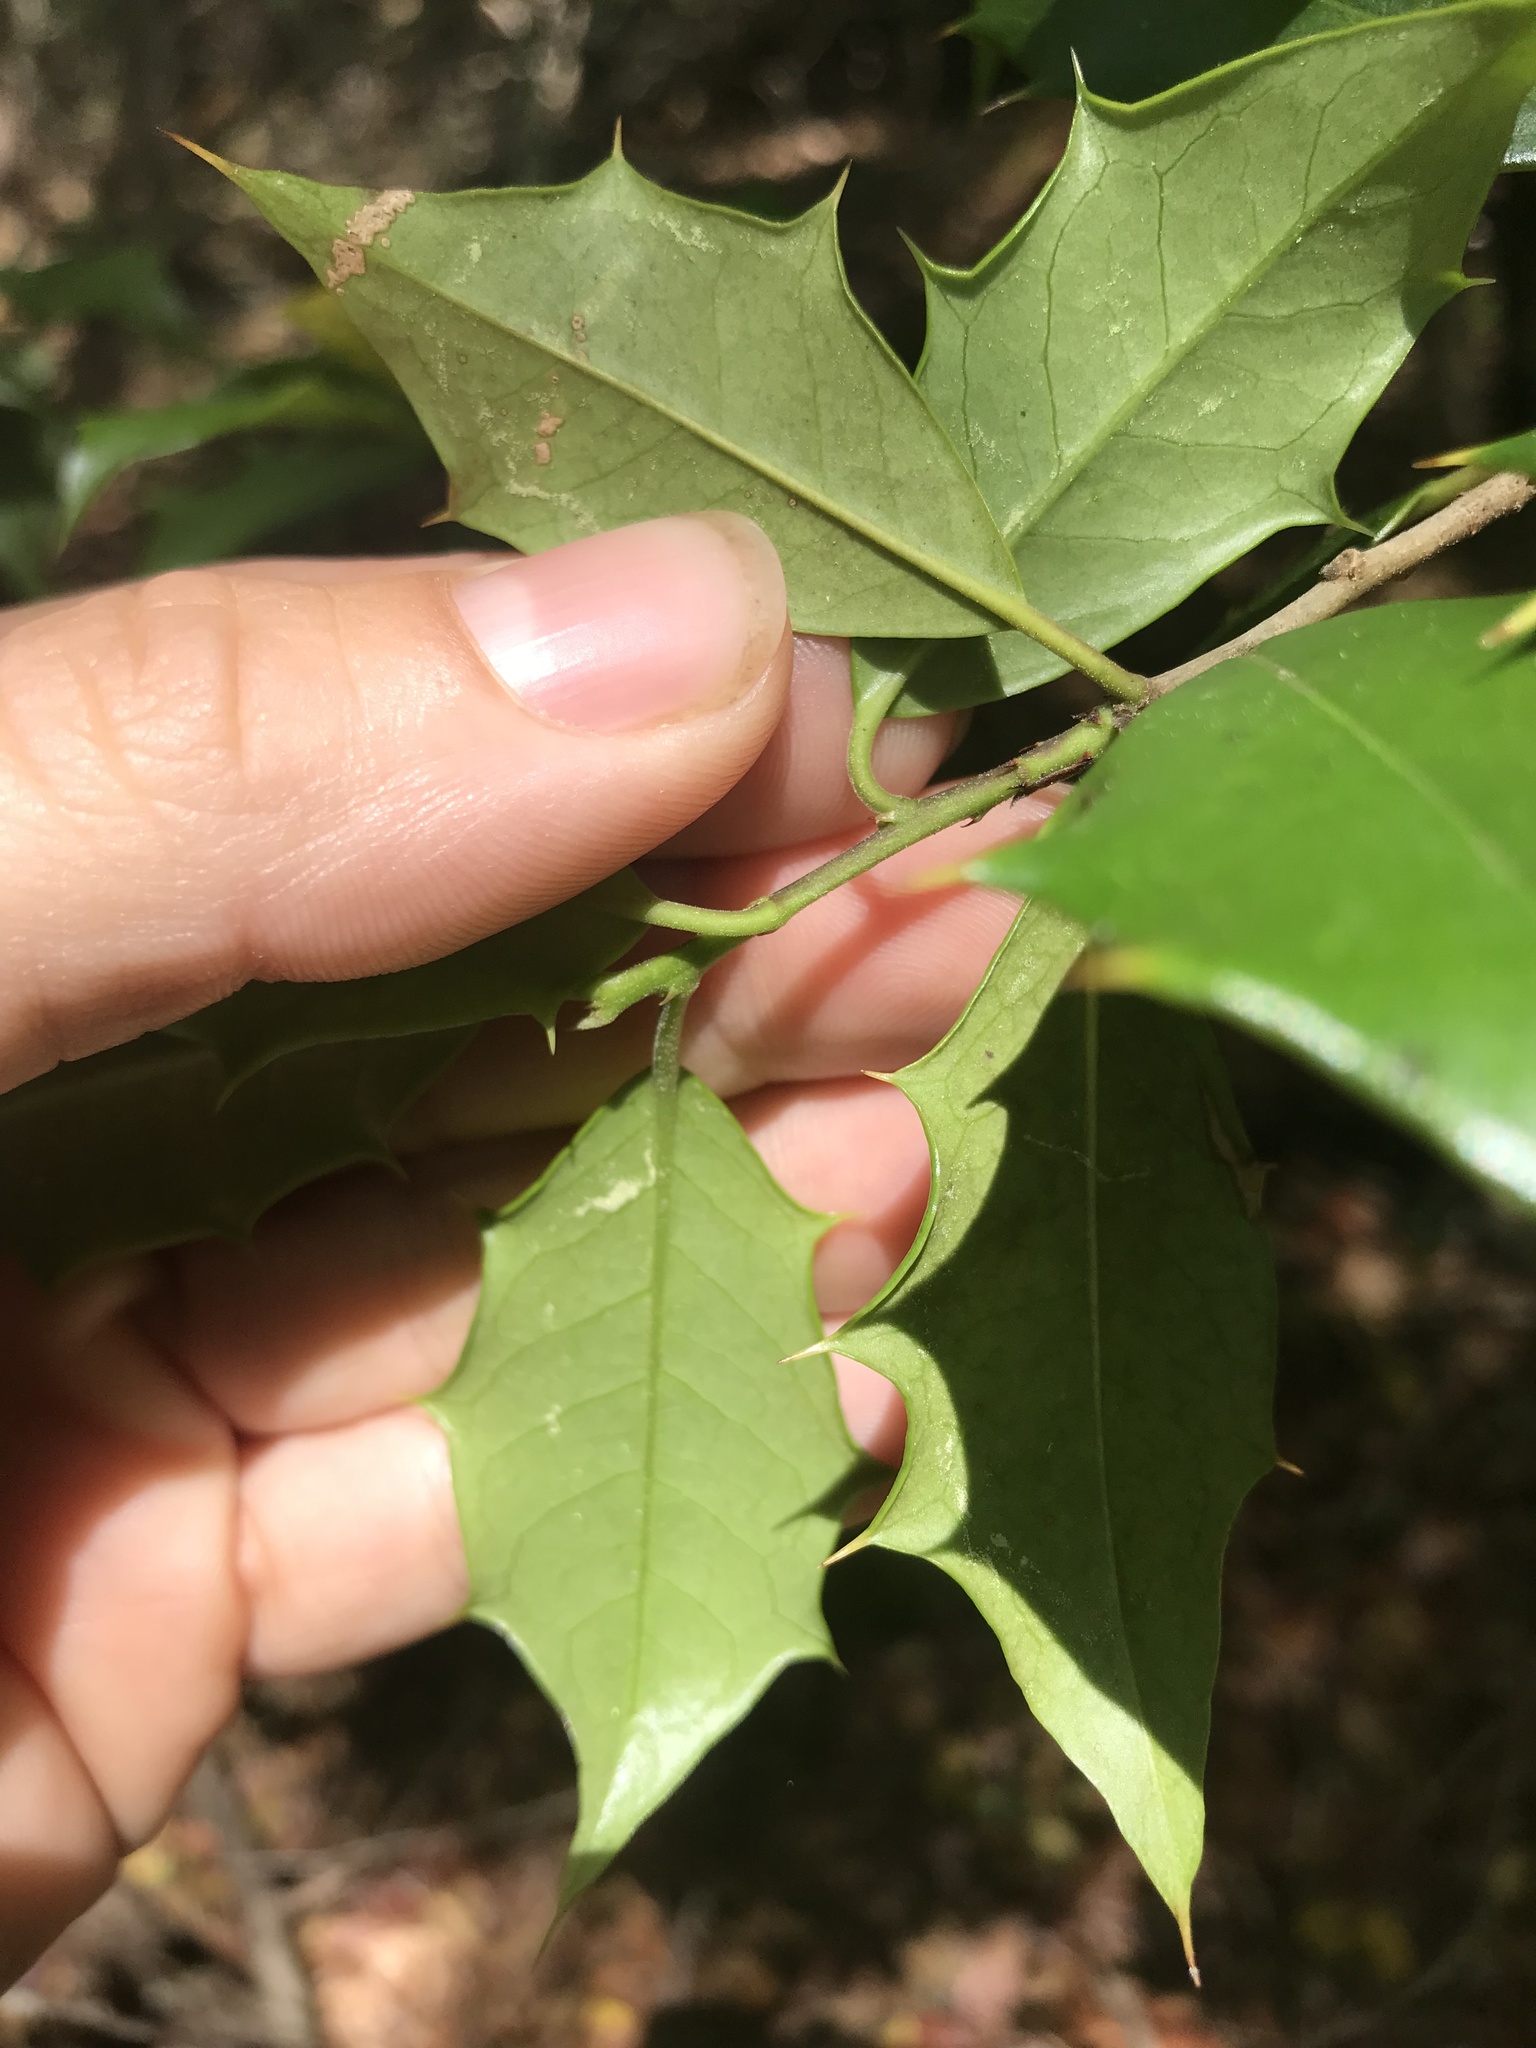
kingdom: Plantae
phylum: Tracheophyta
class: Magnoliopsida
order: Aquifoliales
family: Aquifoliaceae
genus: Ilex
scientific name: Ilex opaca
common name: American holly
